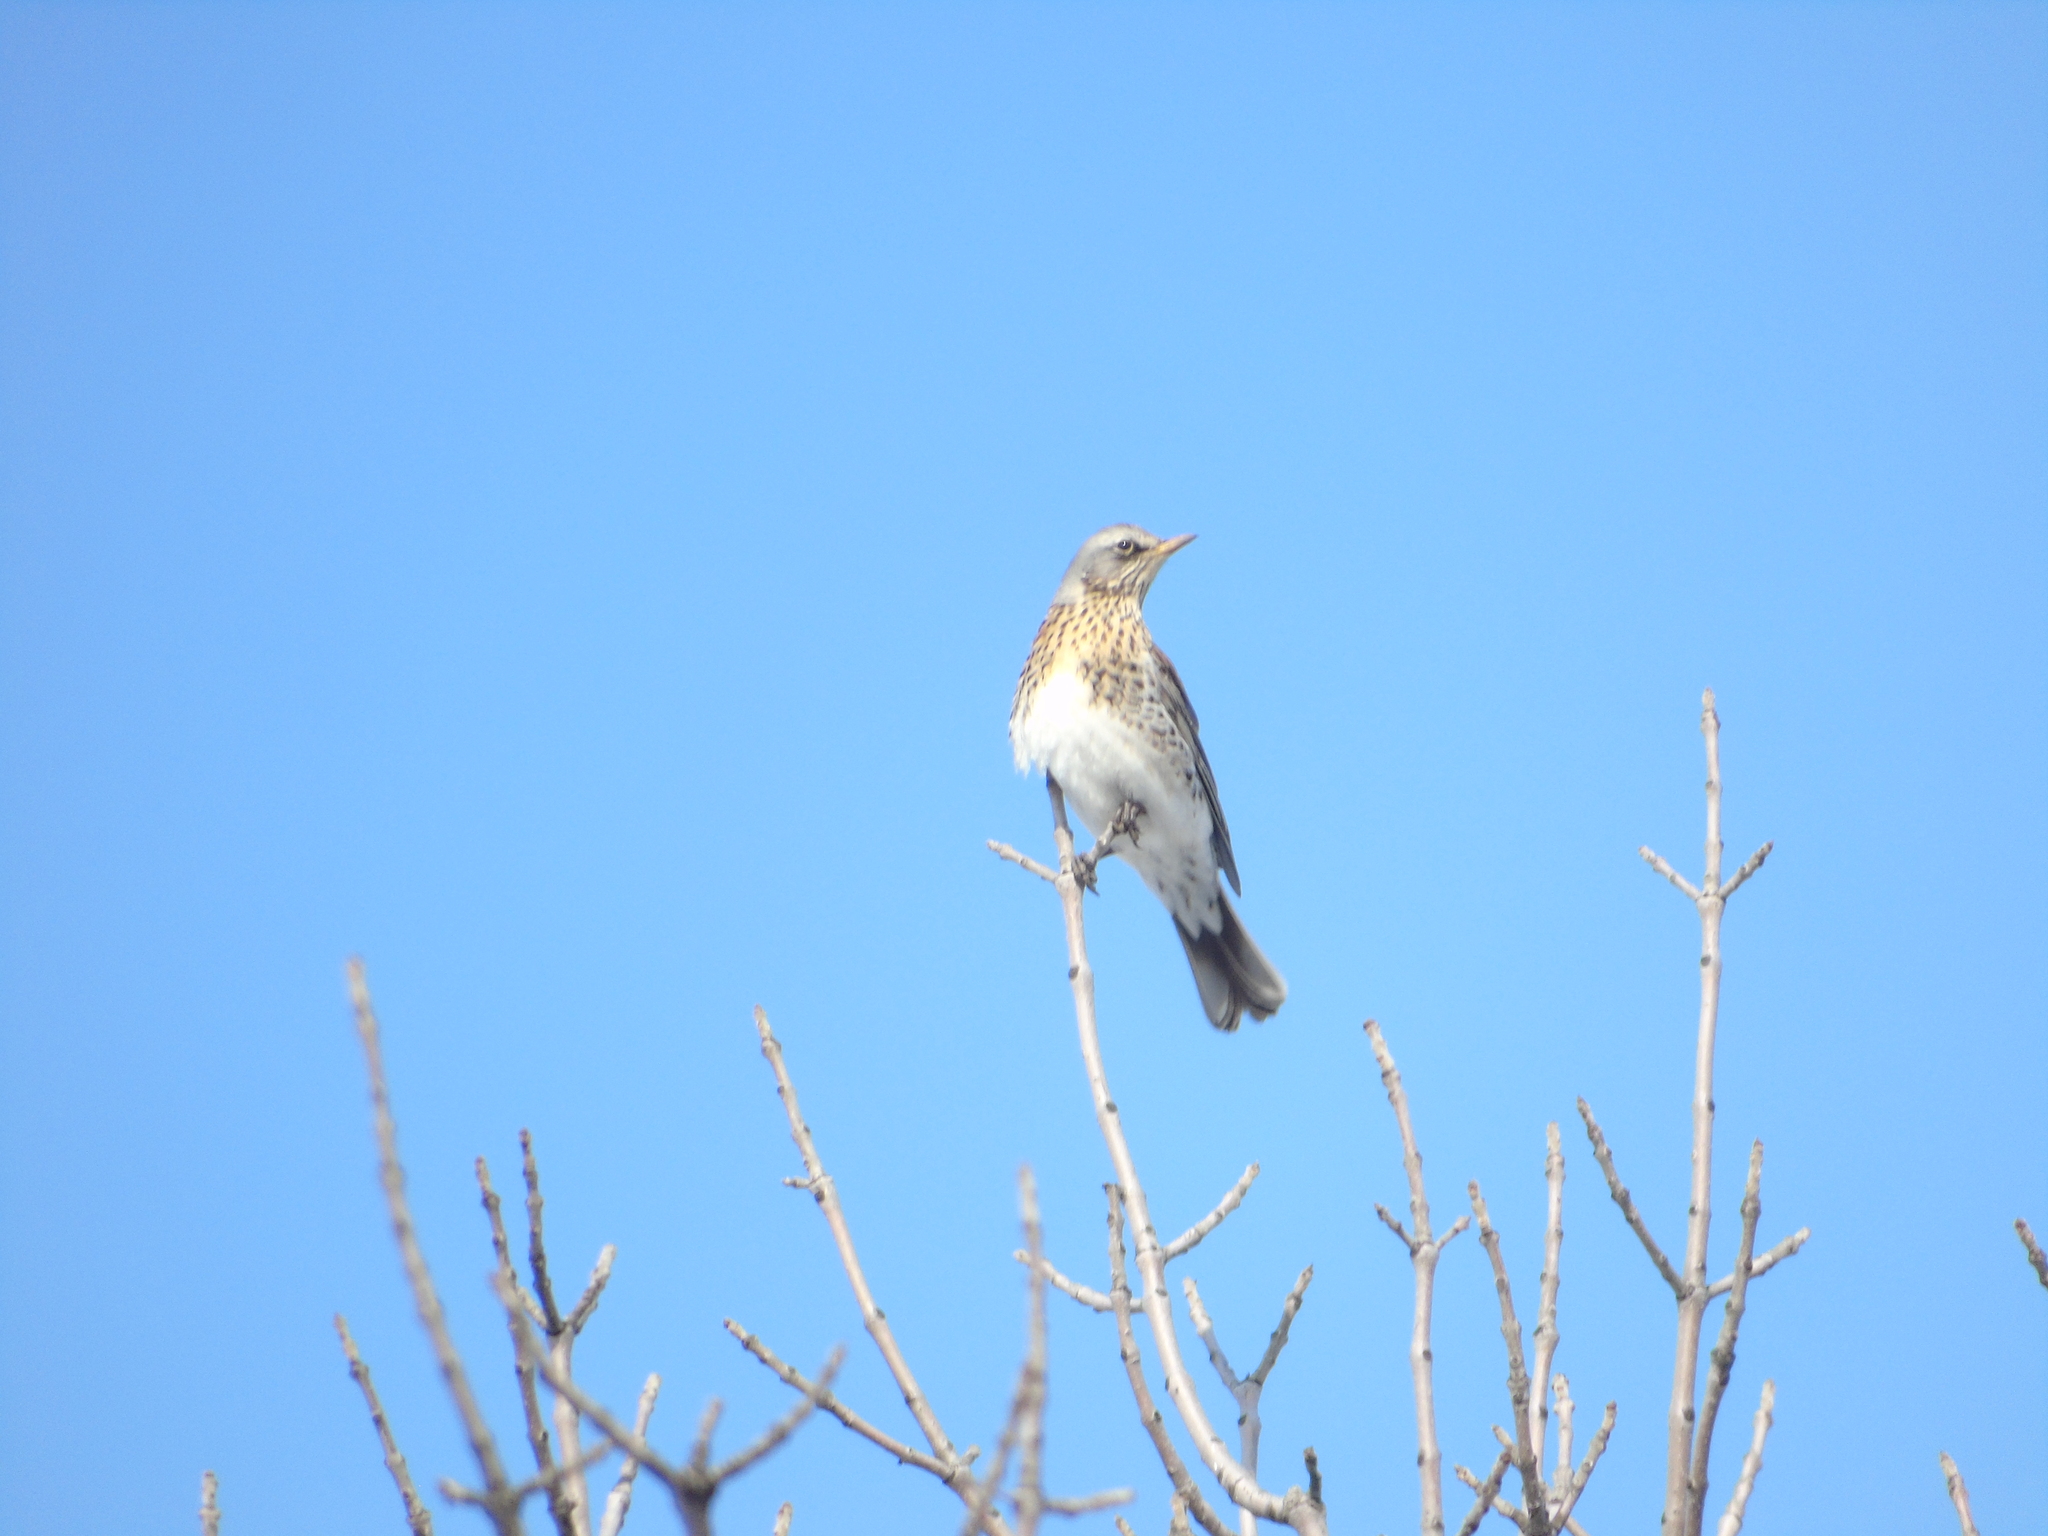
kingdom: Animalia
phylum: Chordata
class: Aves
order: Passeriformes
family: Turdidae
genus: Turdus
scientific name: Turdus pilaris
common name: Fieldfare
